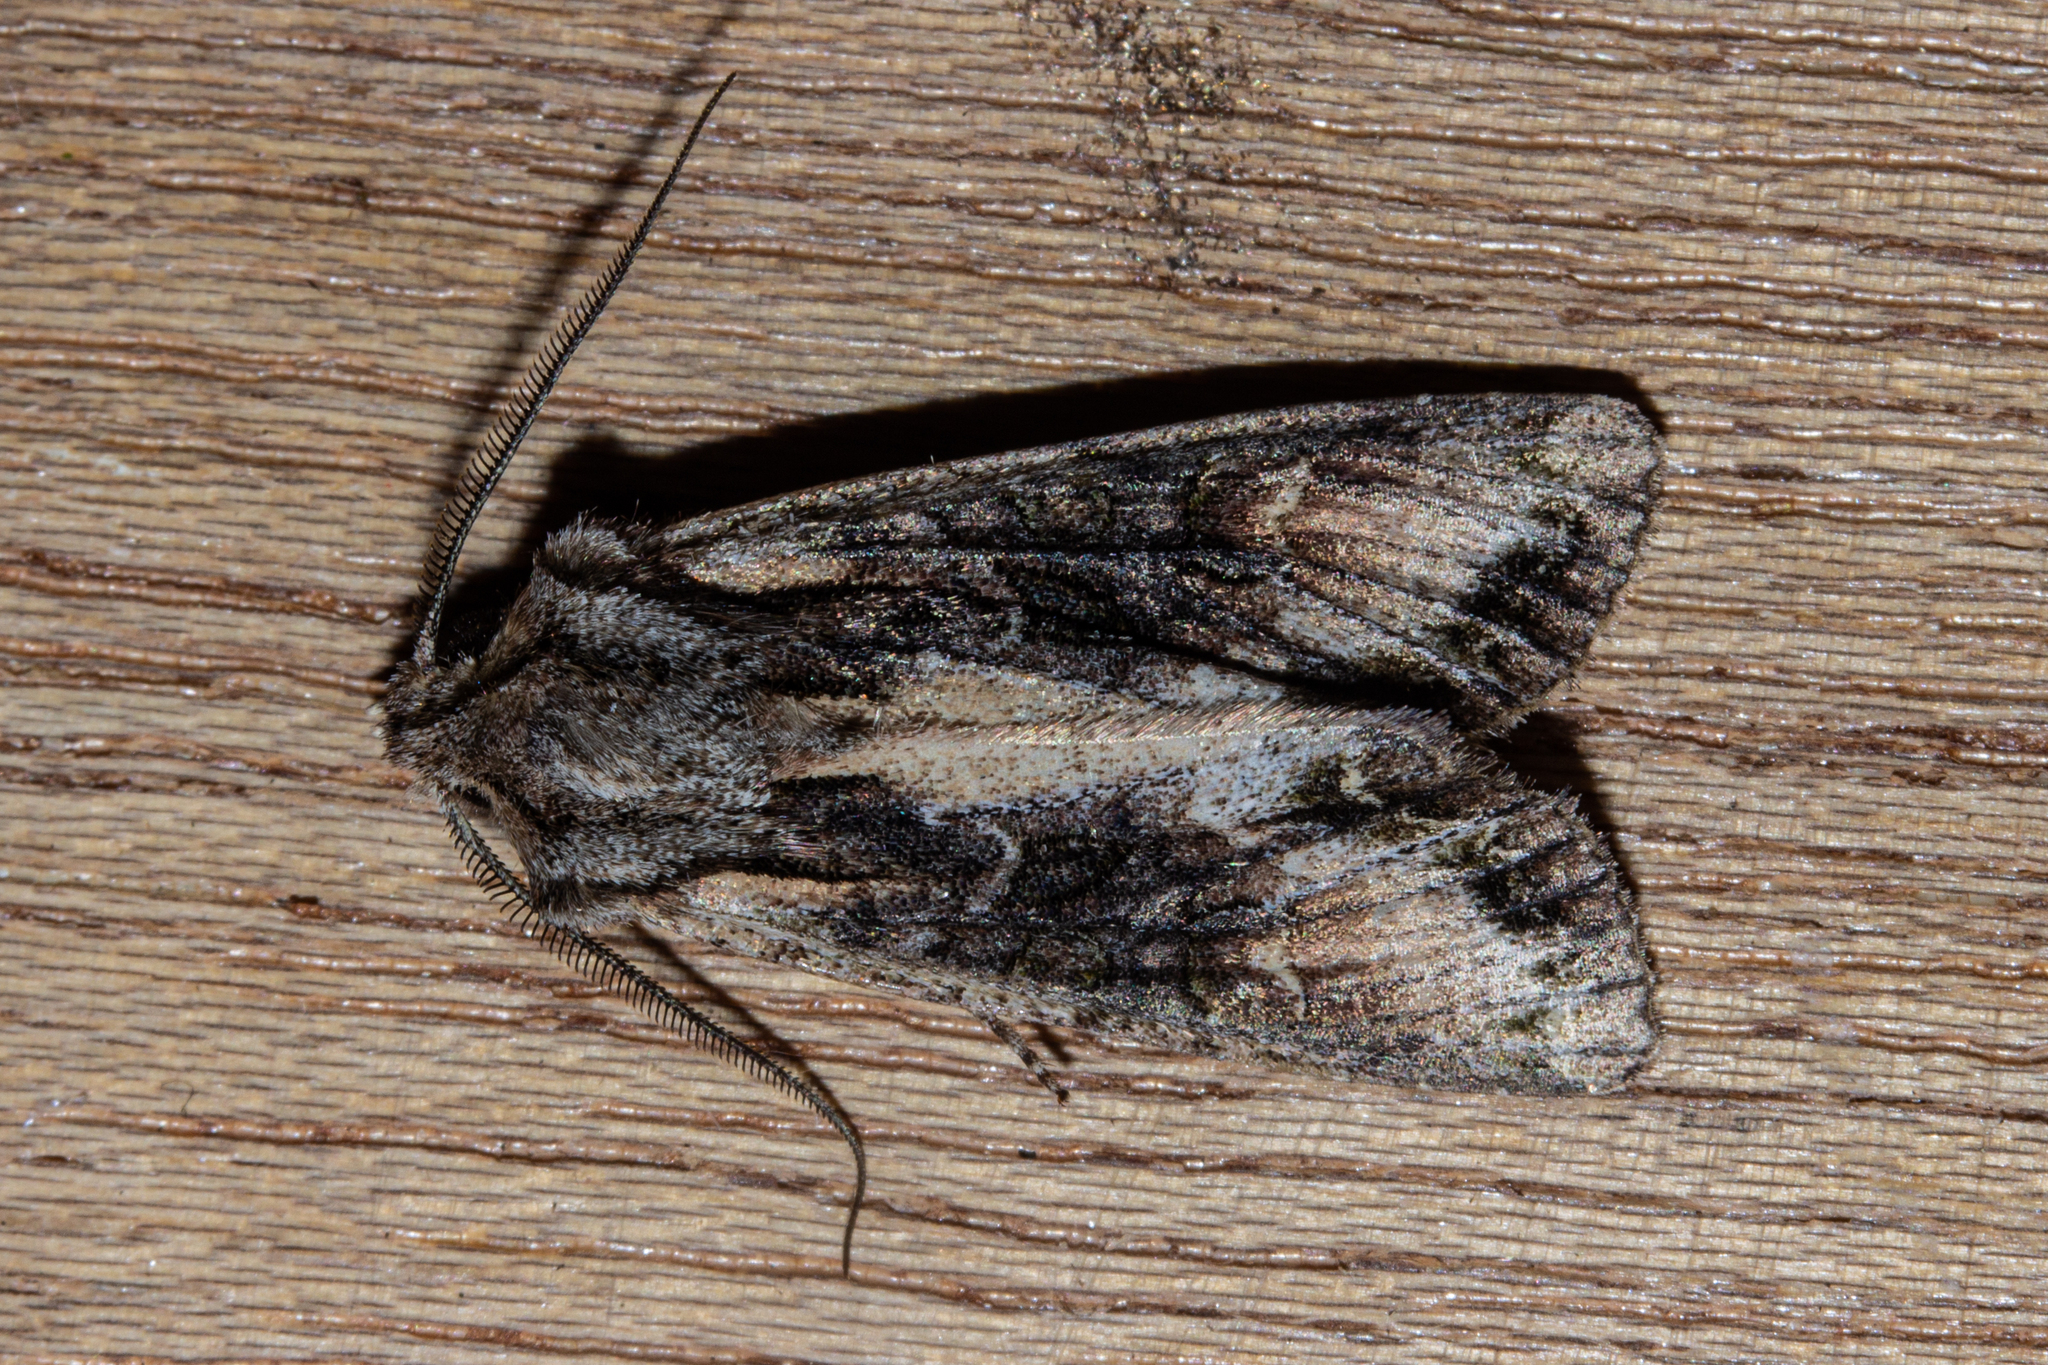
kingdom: Animalia
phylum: Arthropoda
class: Insecta
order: Lepidoptera
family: Noctuidae
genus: Ichneutica
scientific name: Ichneutica skelloni
